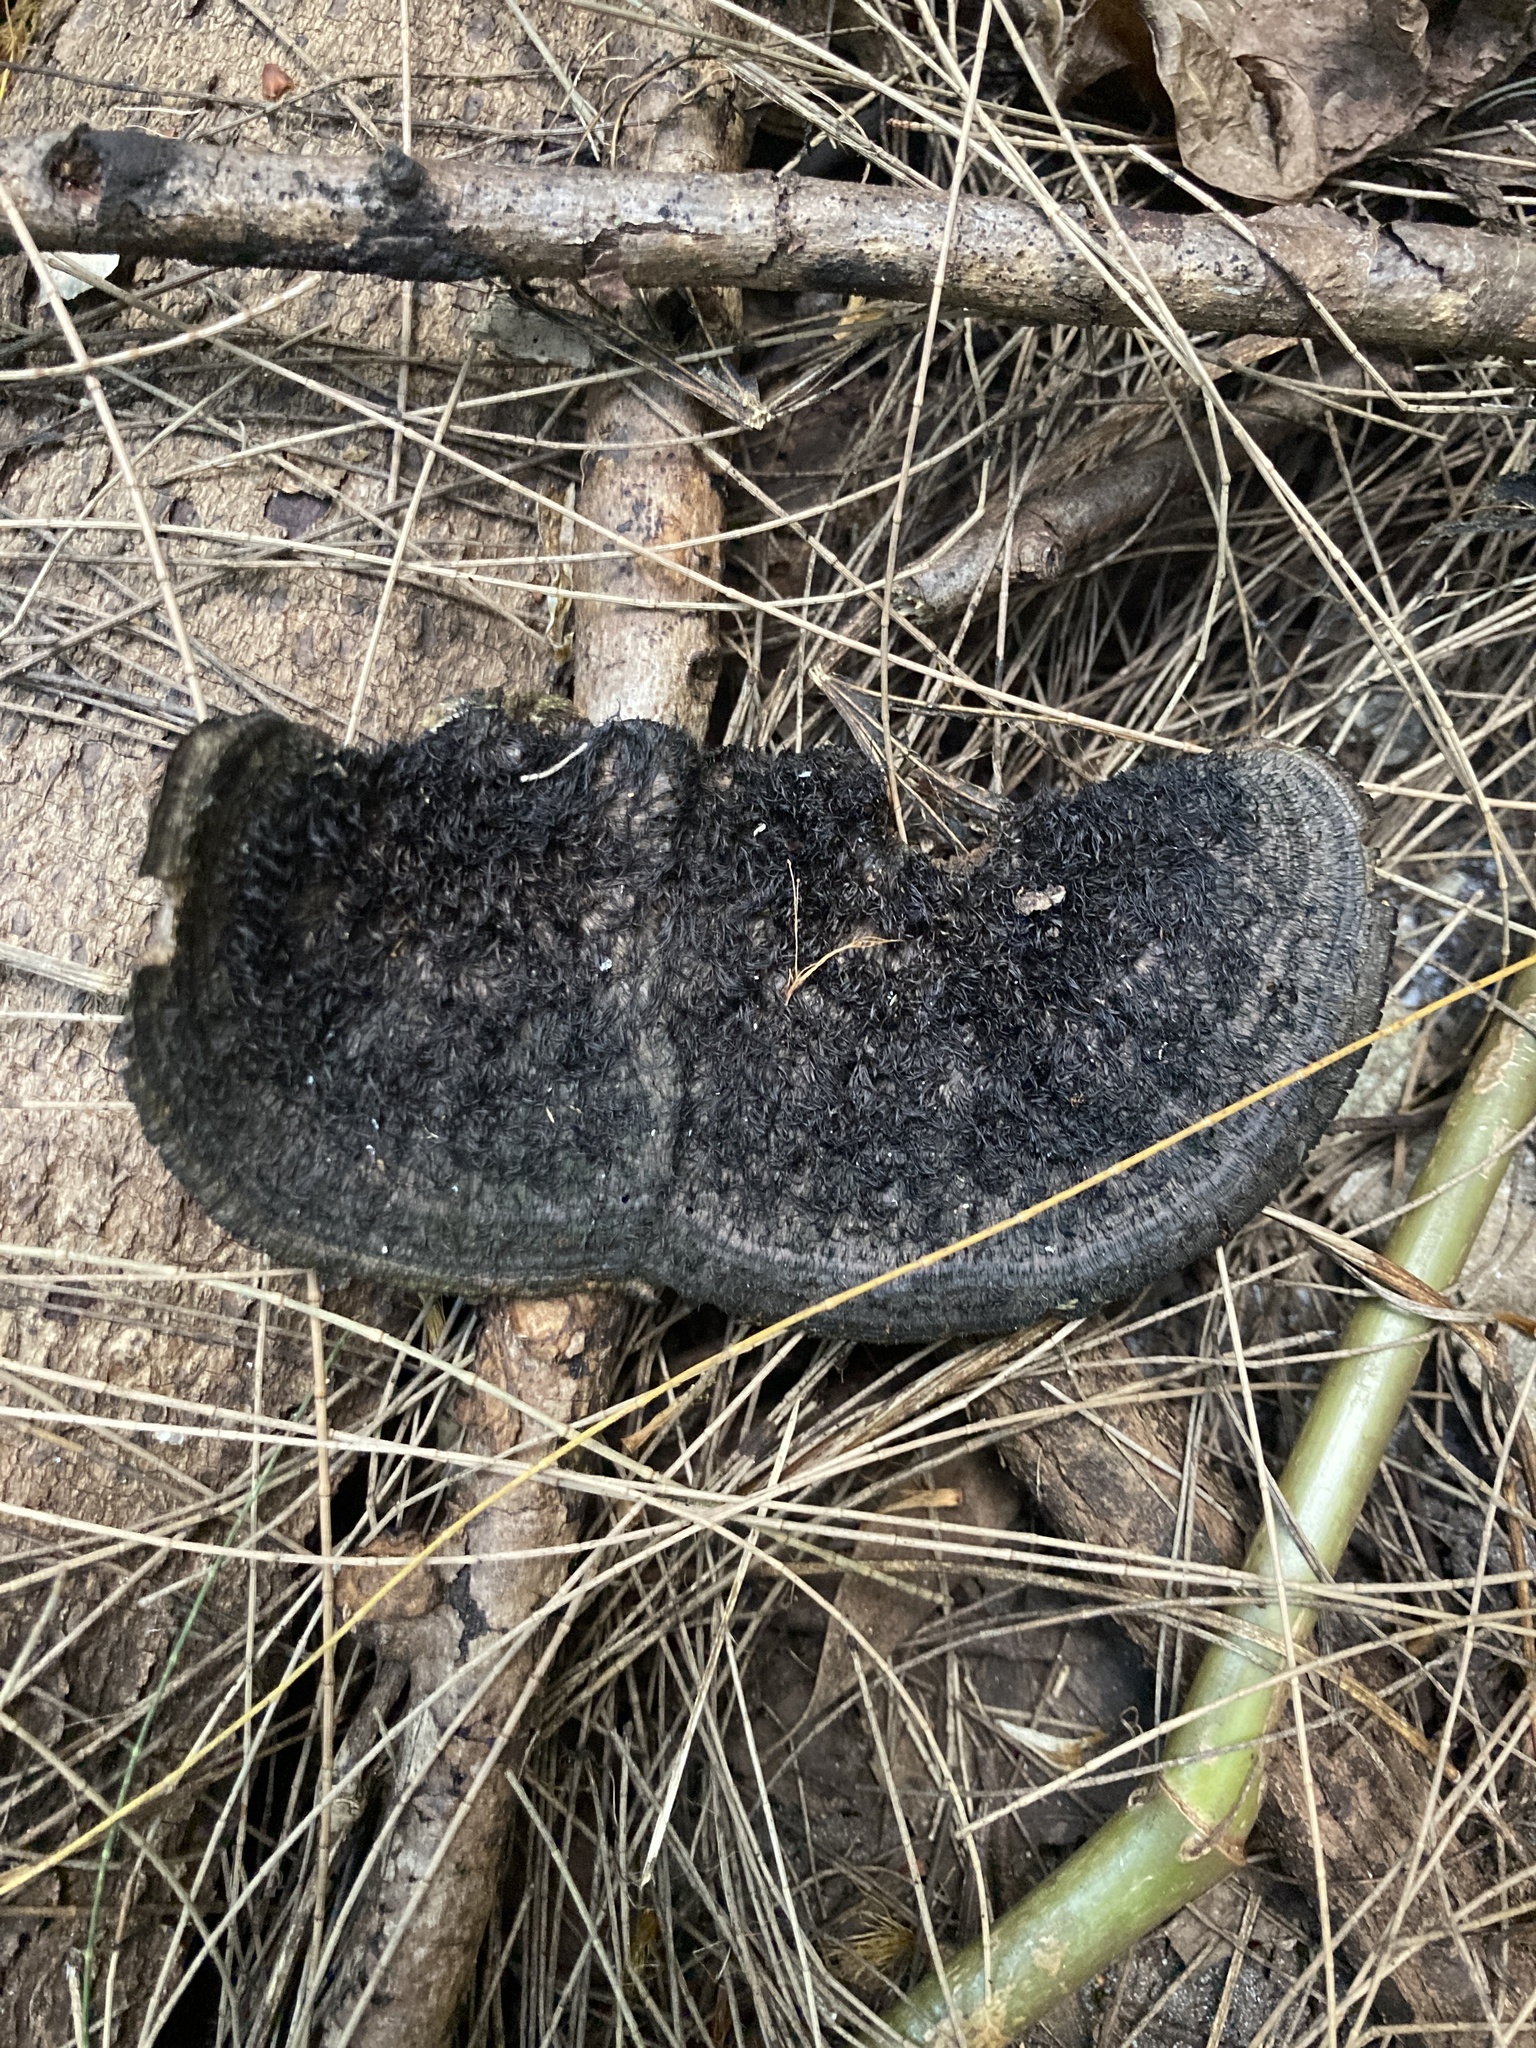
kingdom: Fungi
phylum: Basidiomycota
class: Agaricomycetes
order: Polyporales
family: Cerrenaceae
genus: Cerrena
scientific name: Cerrena hydnoides
